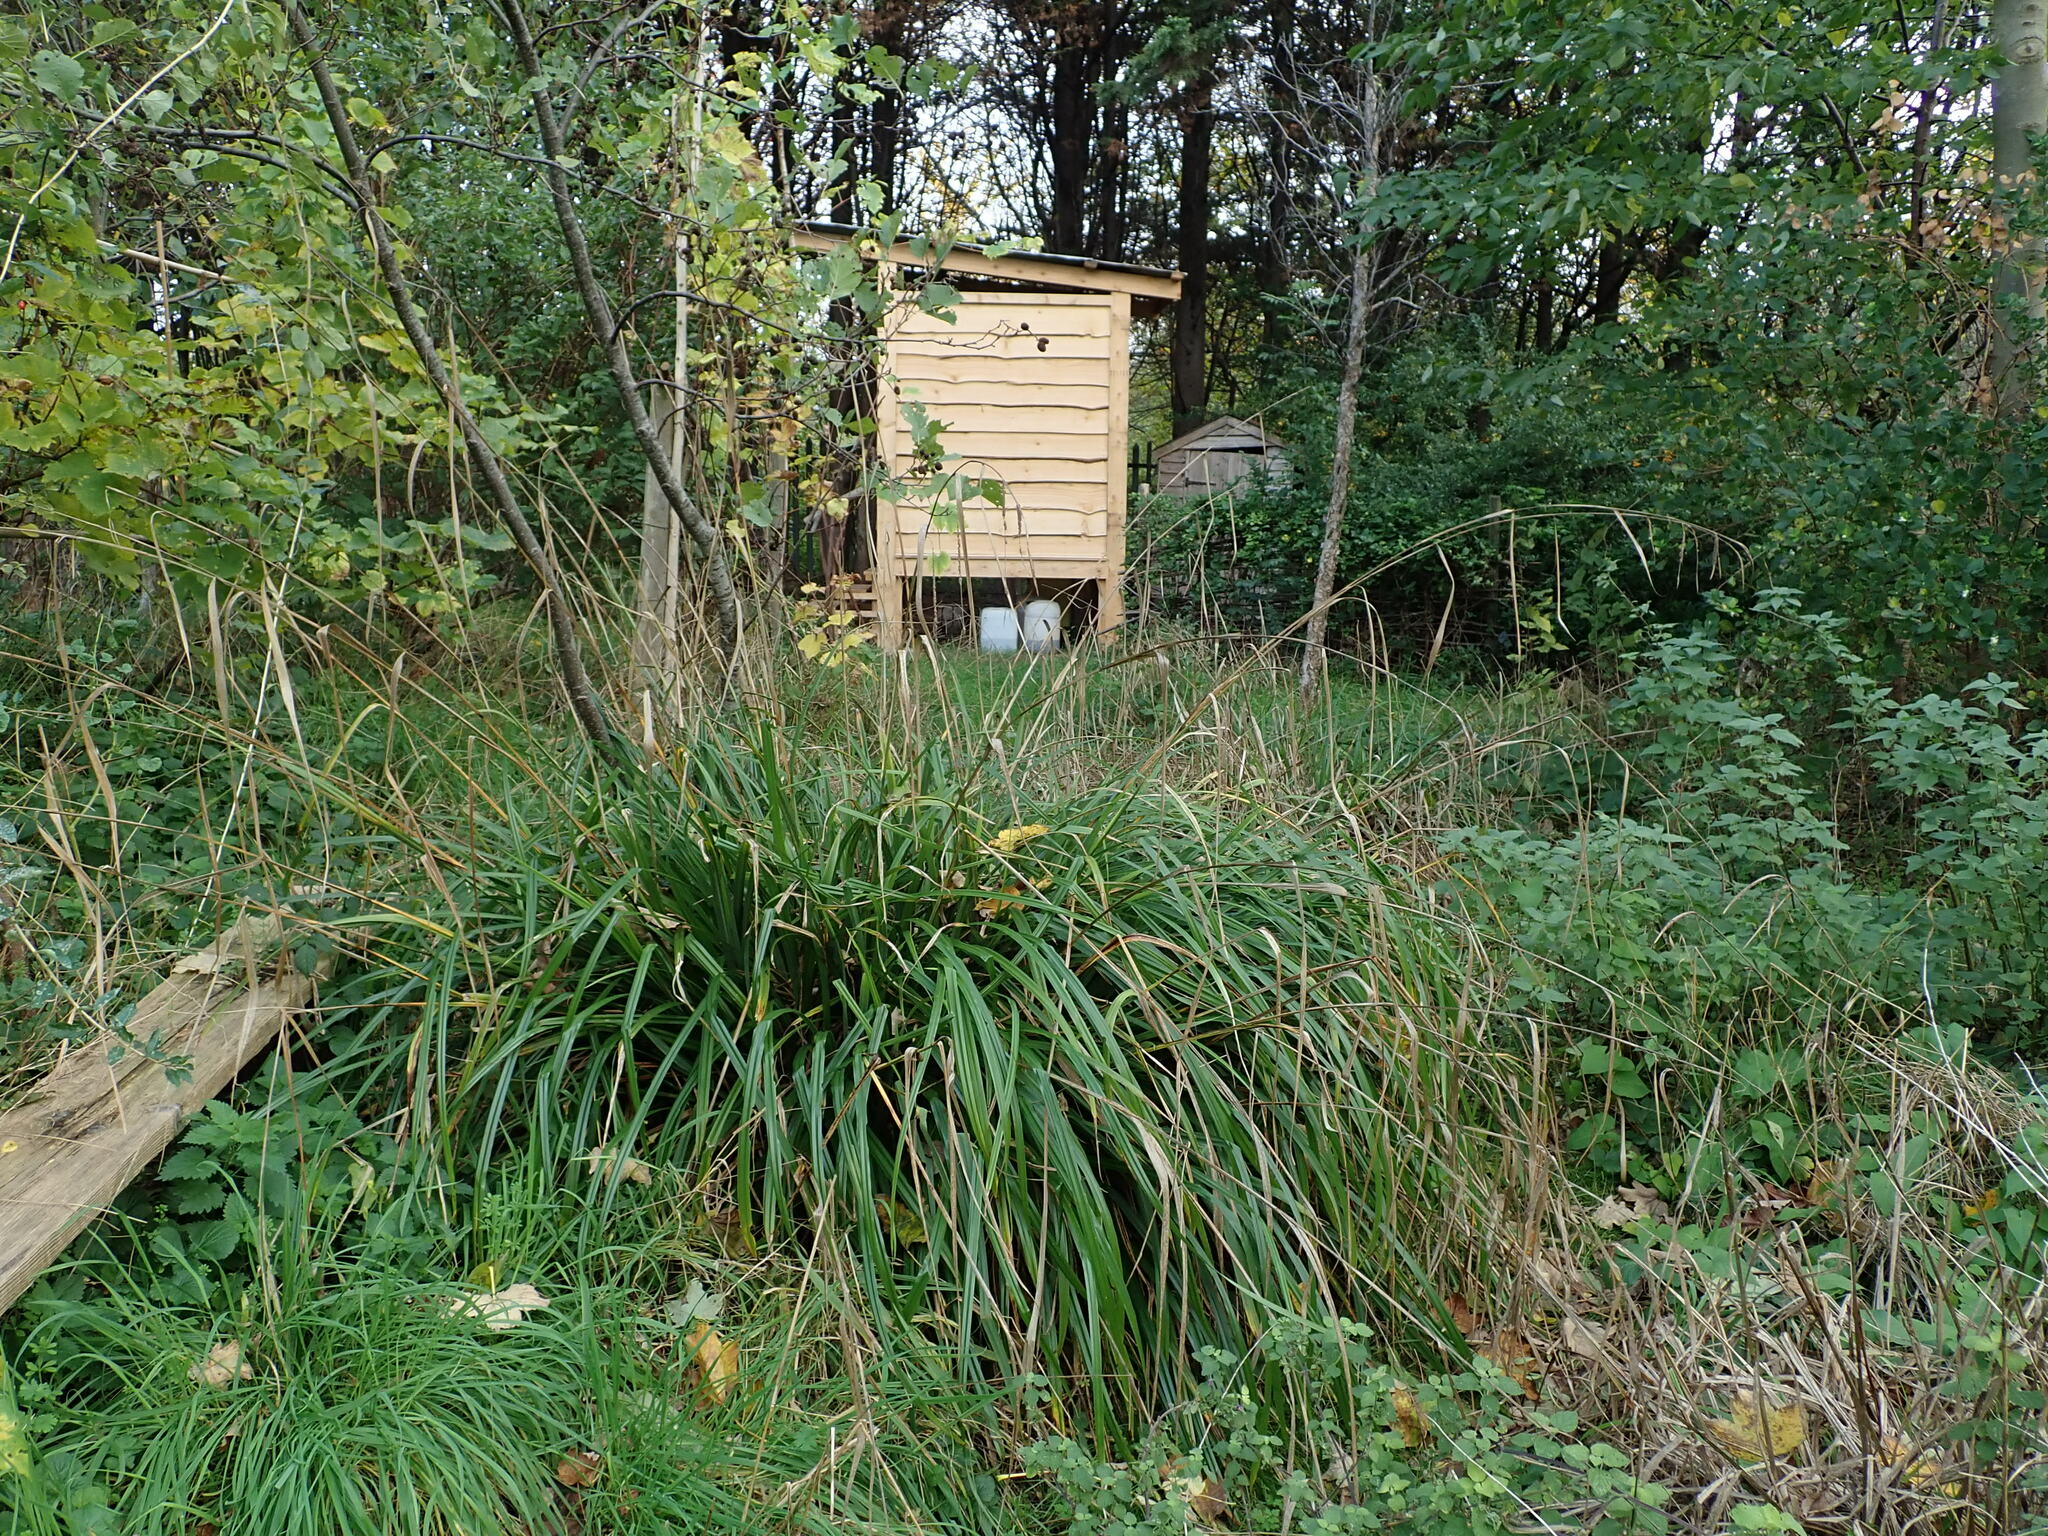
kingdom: Plantae
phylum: Tracheophyta
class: Liliopsida
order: Poales
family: Cyperaceae
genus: Carex
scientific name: Carex pendula
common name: Pendulous sedge
